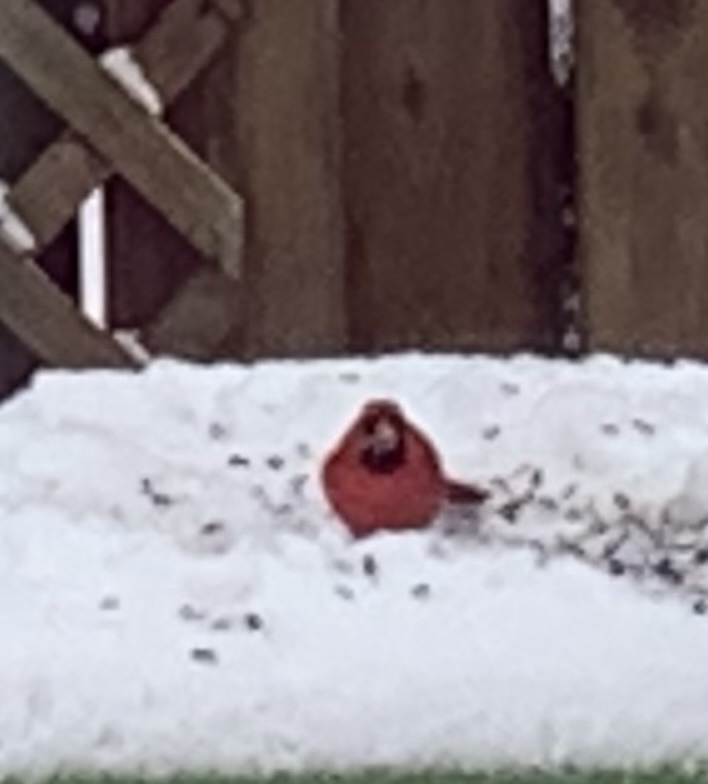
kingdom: Animalia
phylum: Chordata
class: Aves
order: Passeriformes
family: Cardinalidae
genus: Cardinalis
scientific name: Cardinalis cardinalis
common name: Northern cardinal
